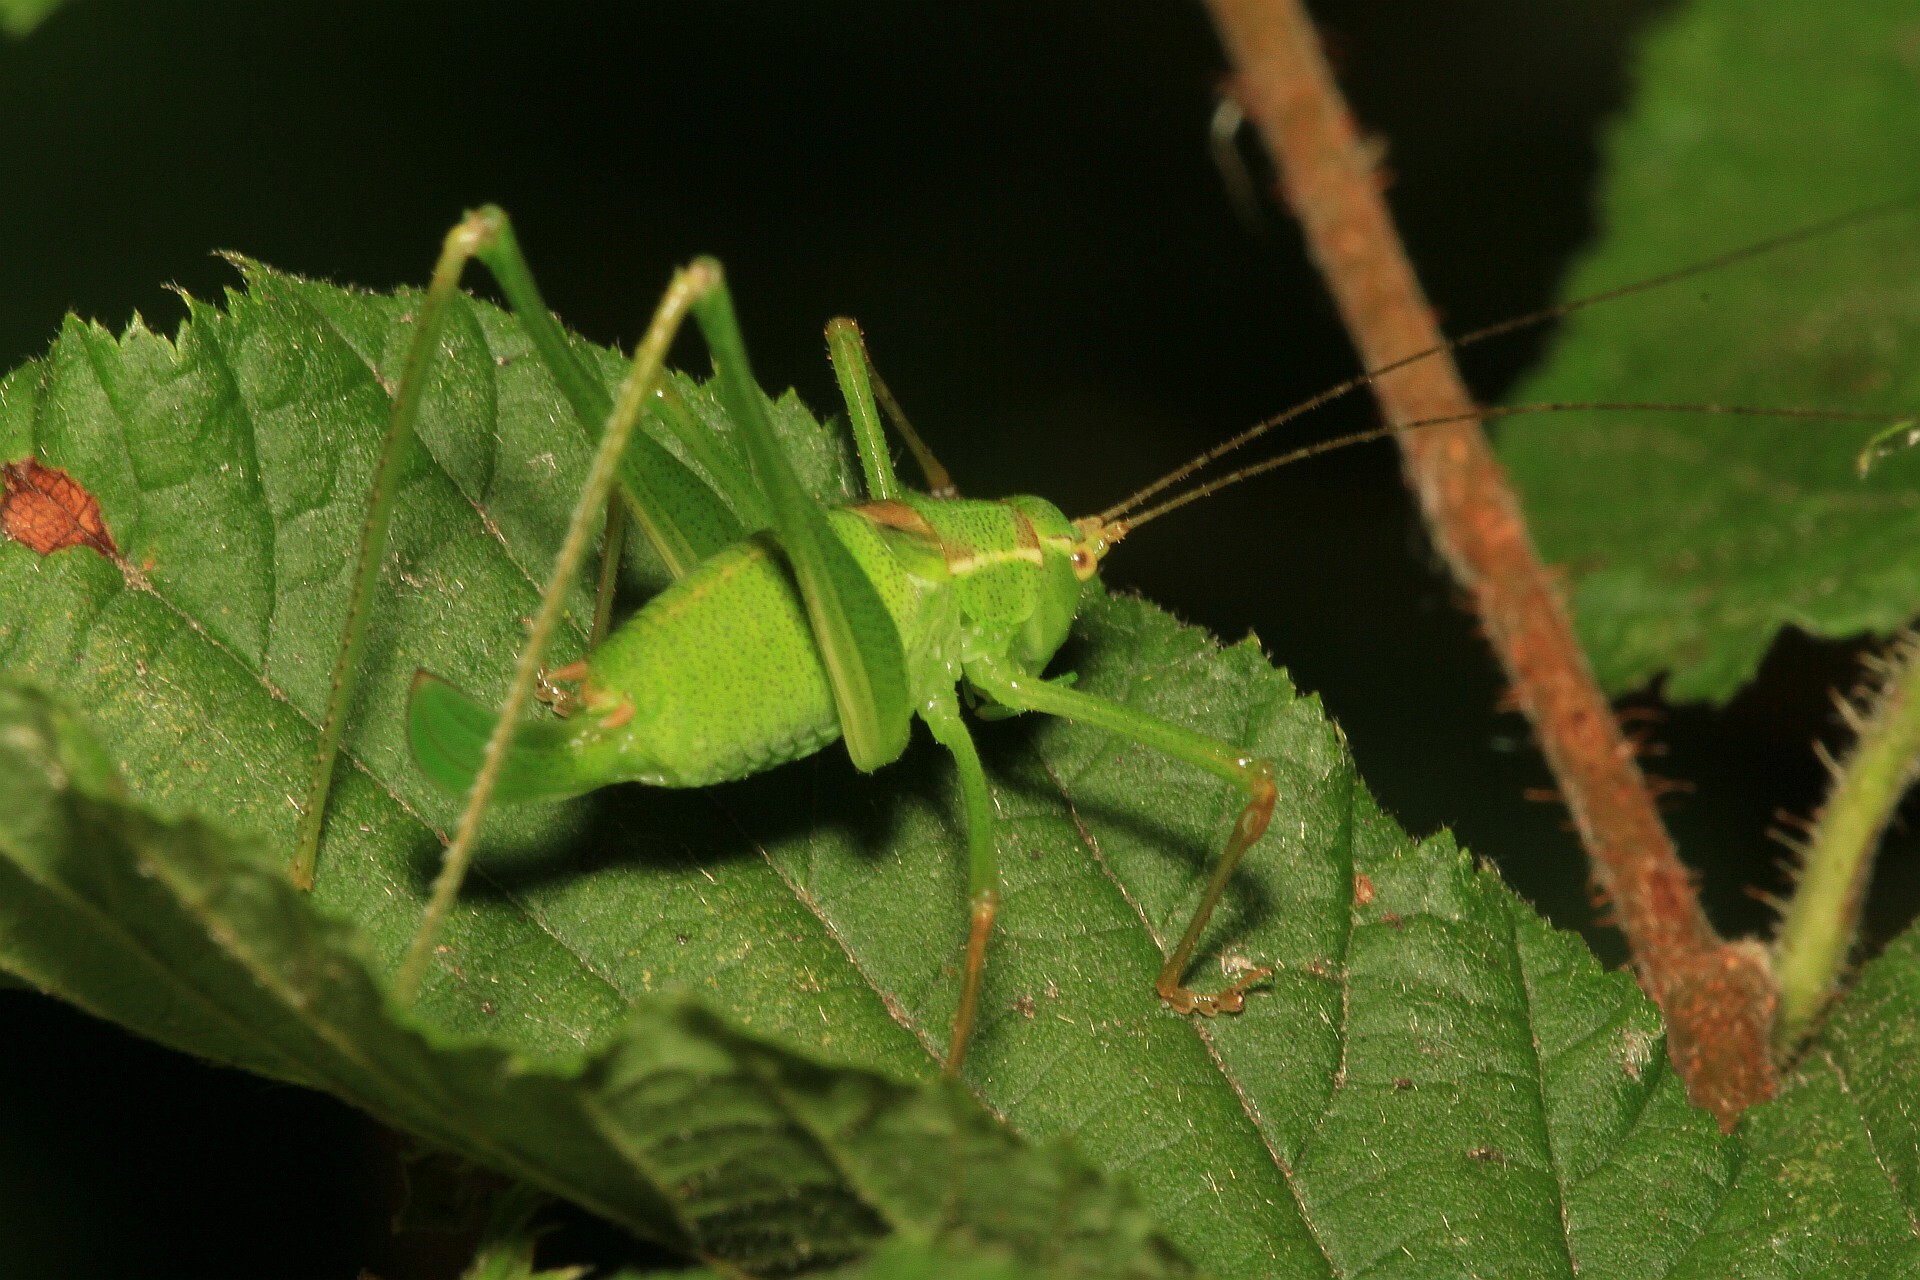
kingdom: Animalia
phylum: Arthropoda
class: Insecta
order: Orthoptera
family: Tettigoniidae
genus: Leptophyes
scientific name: Leptophyes punctatissima
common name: Speckled bush-cricket
